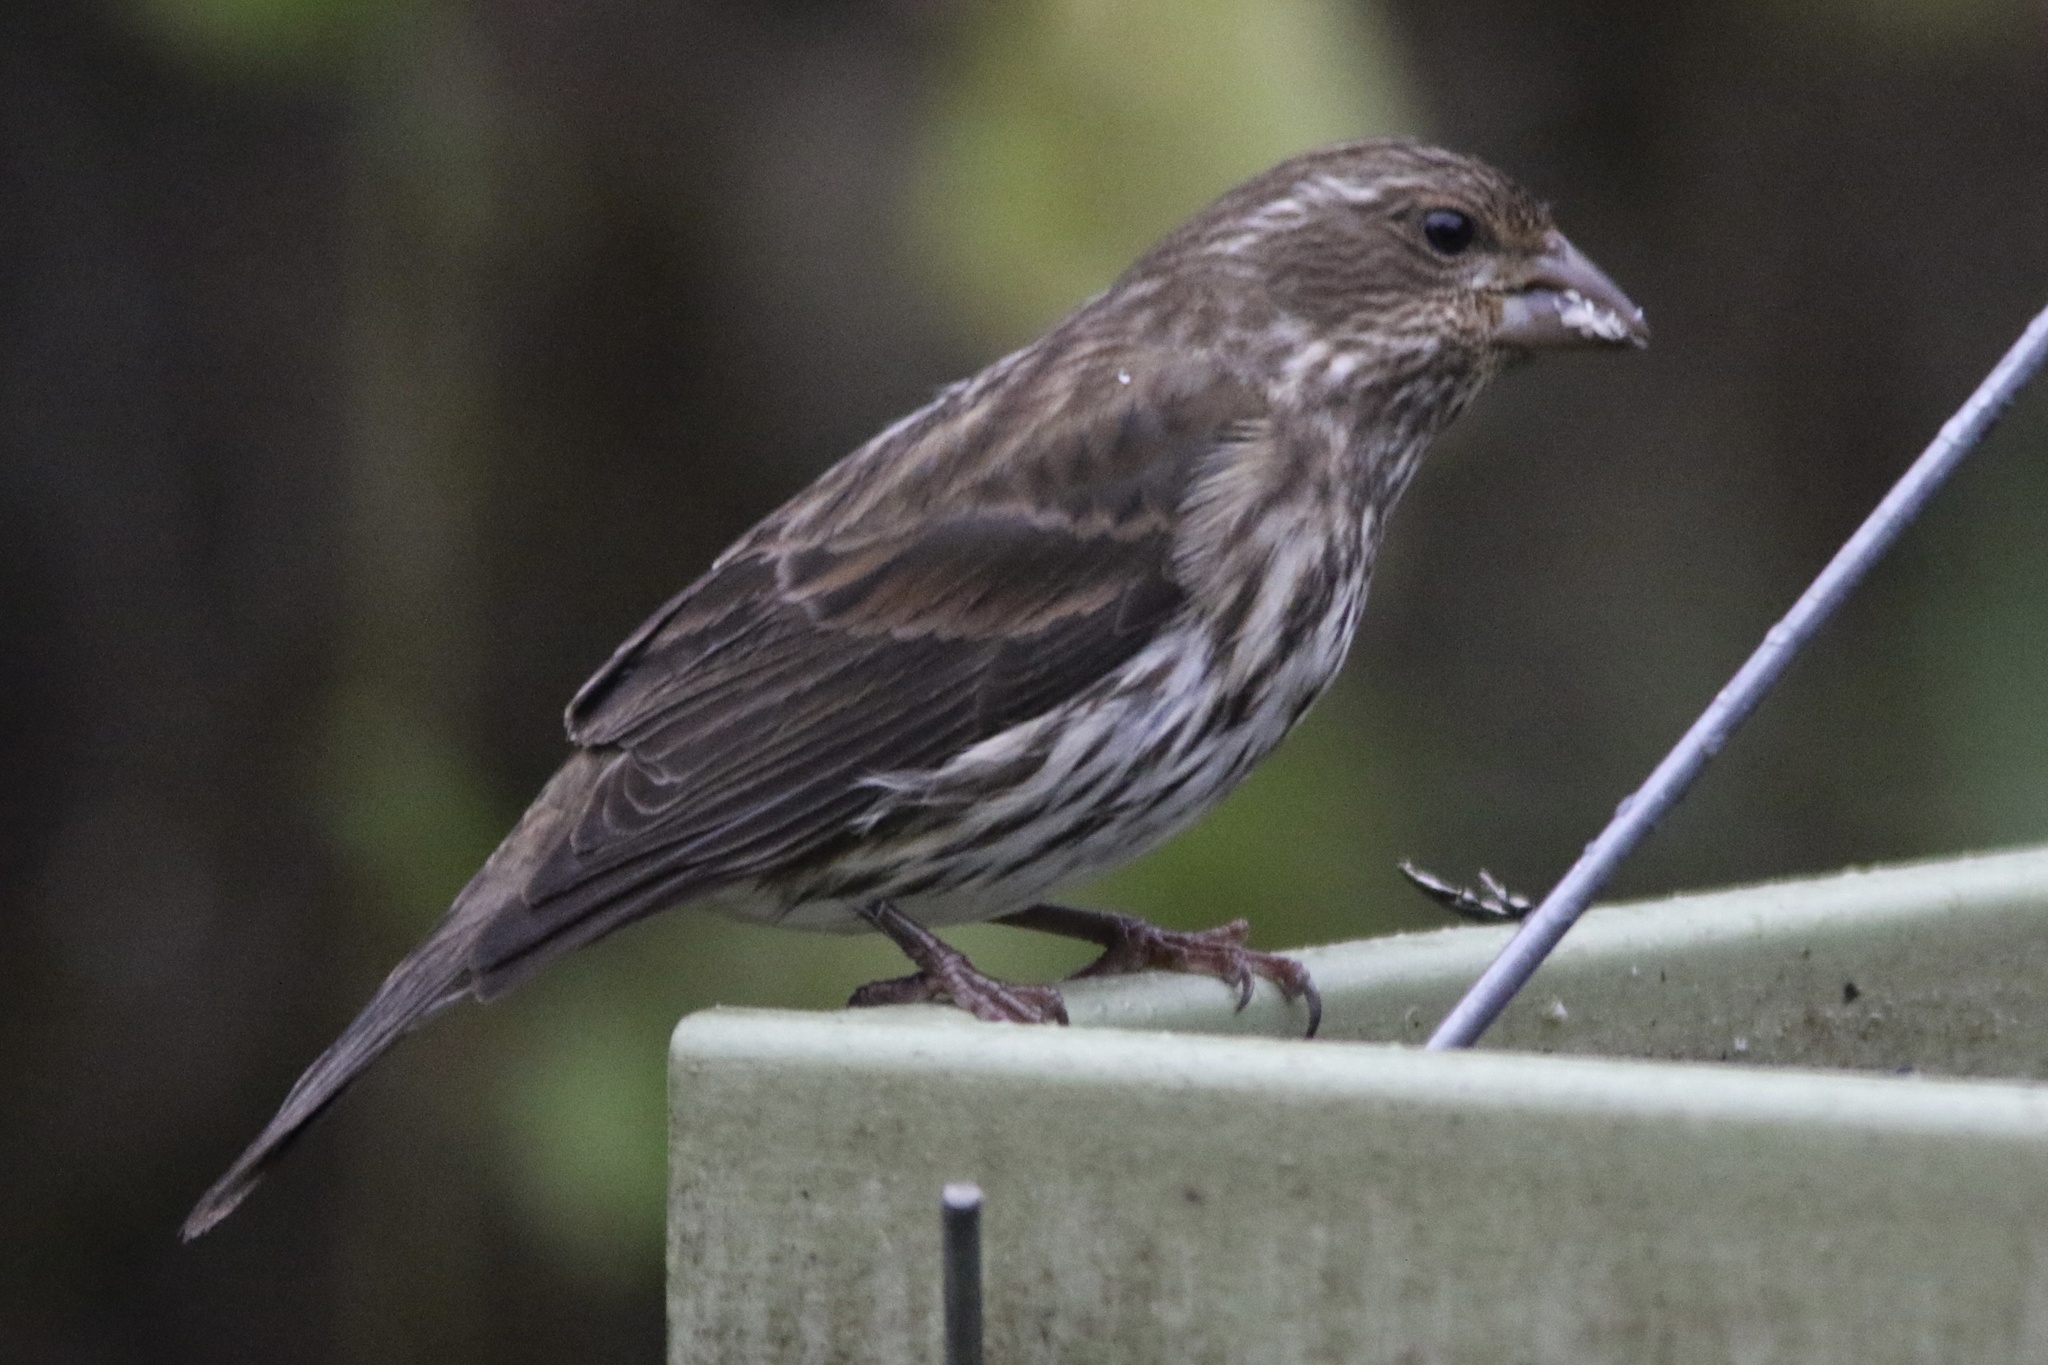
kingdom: Animalia
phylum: Chordata
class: Aves
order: Passeriformes
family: Fringillidae
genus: Haemorhous
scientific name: Haemorhous purpureus
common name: Purple finch
